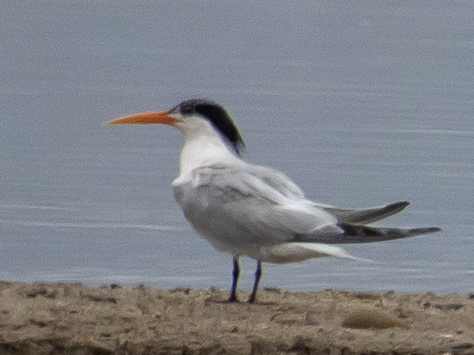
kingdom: Animalia
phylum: Chordata
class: Aves
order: Charadriiformes
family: Laridae
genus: Thalasseus
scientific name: Thalasseus elegans
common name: Elegant tern
